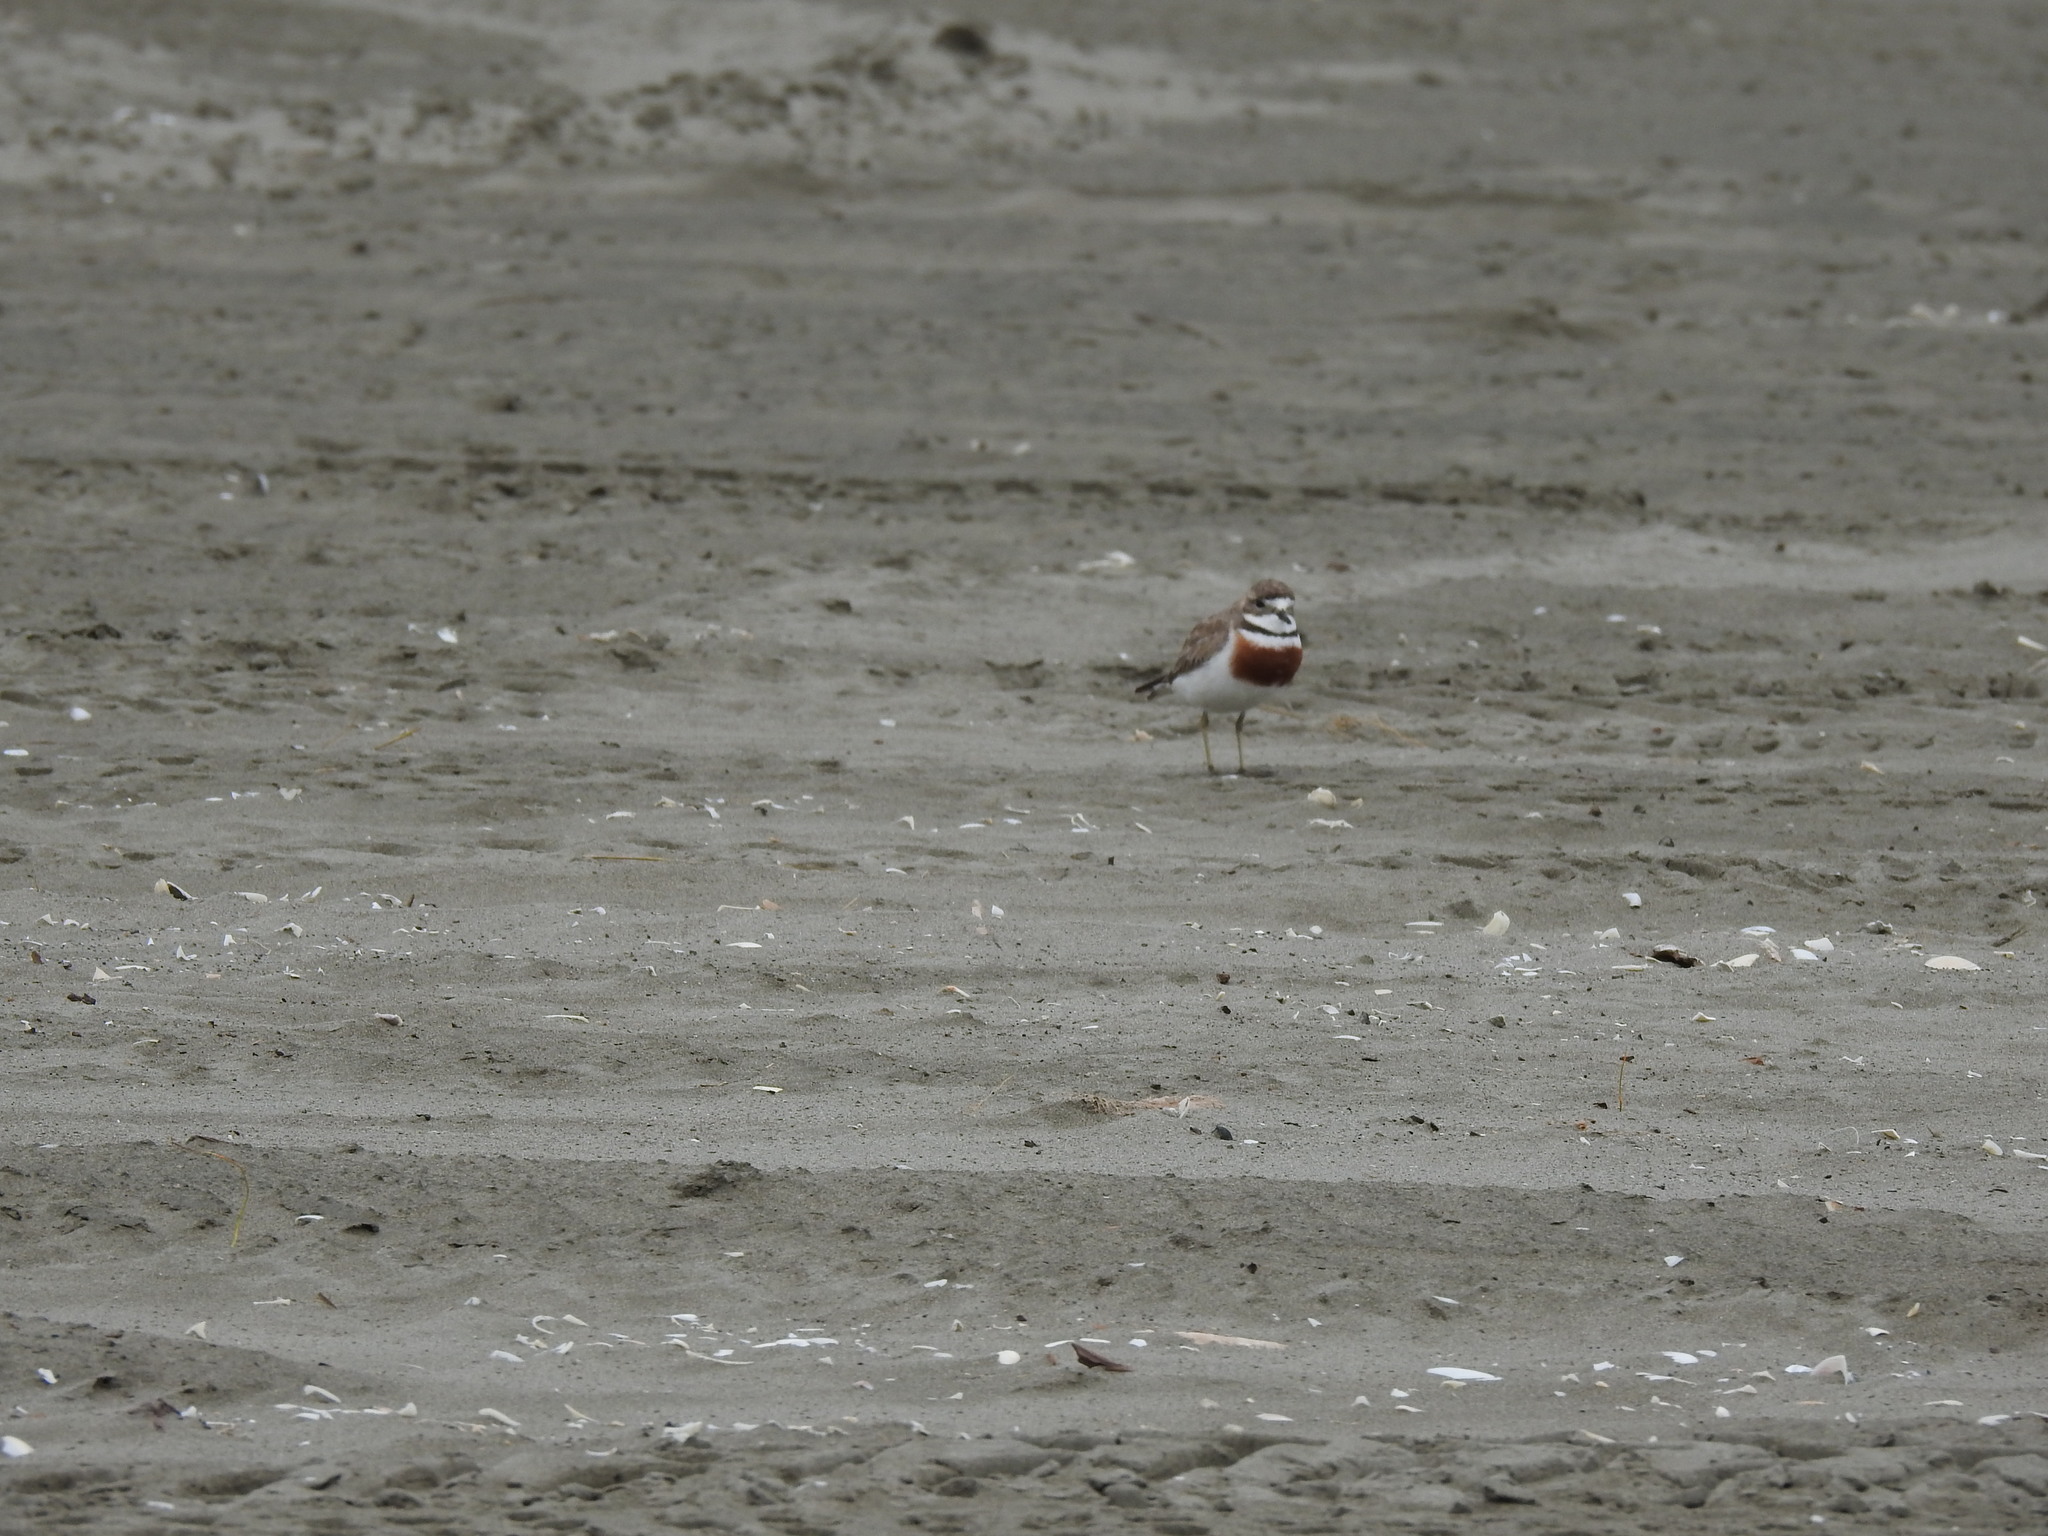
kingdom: Animalia
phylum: Chordata
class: Aves
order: Charadriiformes
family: Charadriidae
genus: Anarhynchus
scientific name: Anarhynchus
